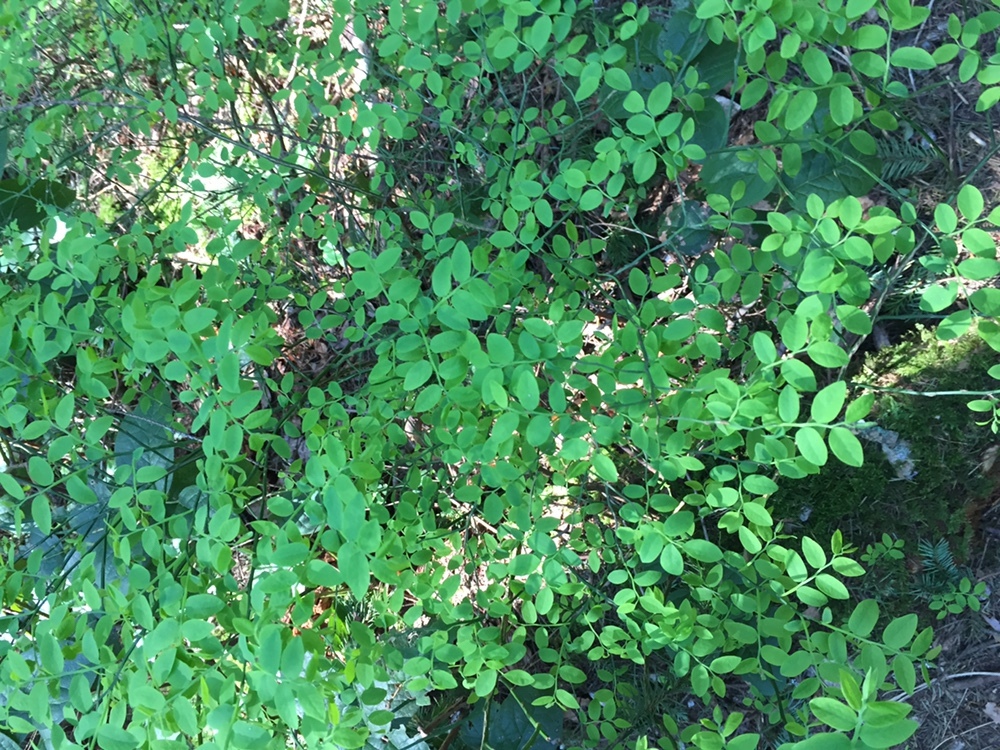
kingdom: Plantae
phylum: Tracheophyta
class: Magnoliopsida
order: Ericales
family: Ericaceae
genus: Vaccinium
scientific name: Vaccinium parvifolium
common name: Red-huckleberry
